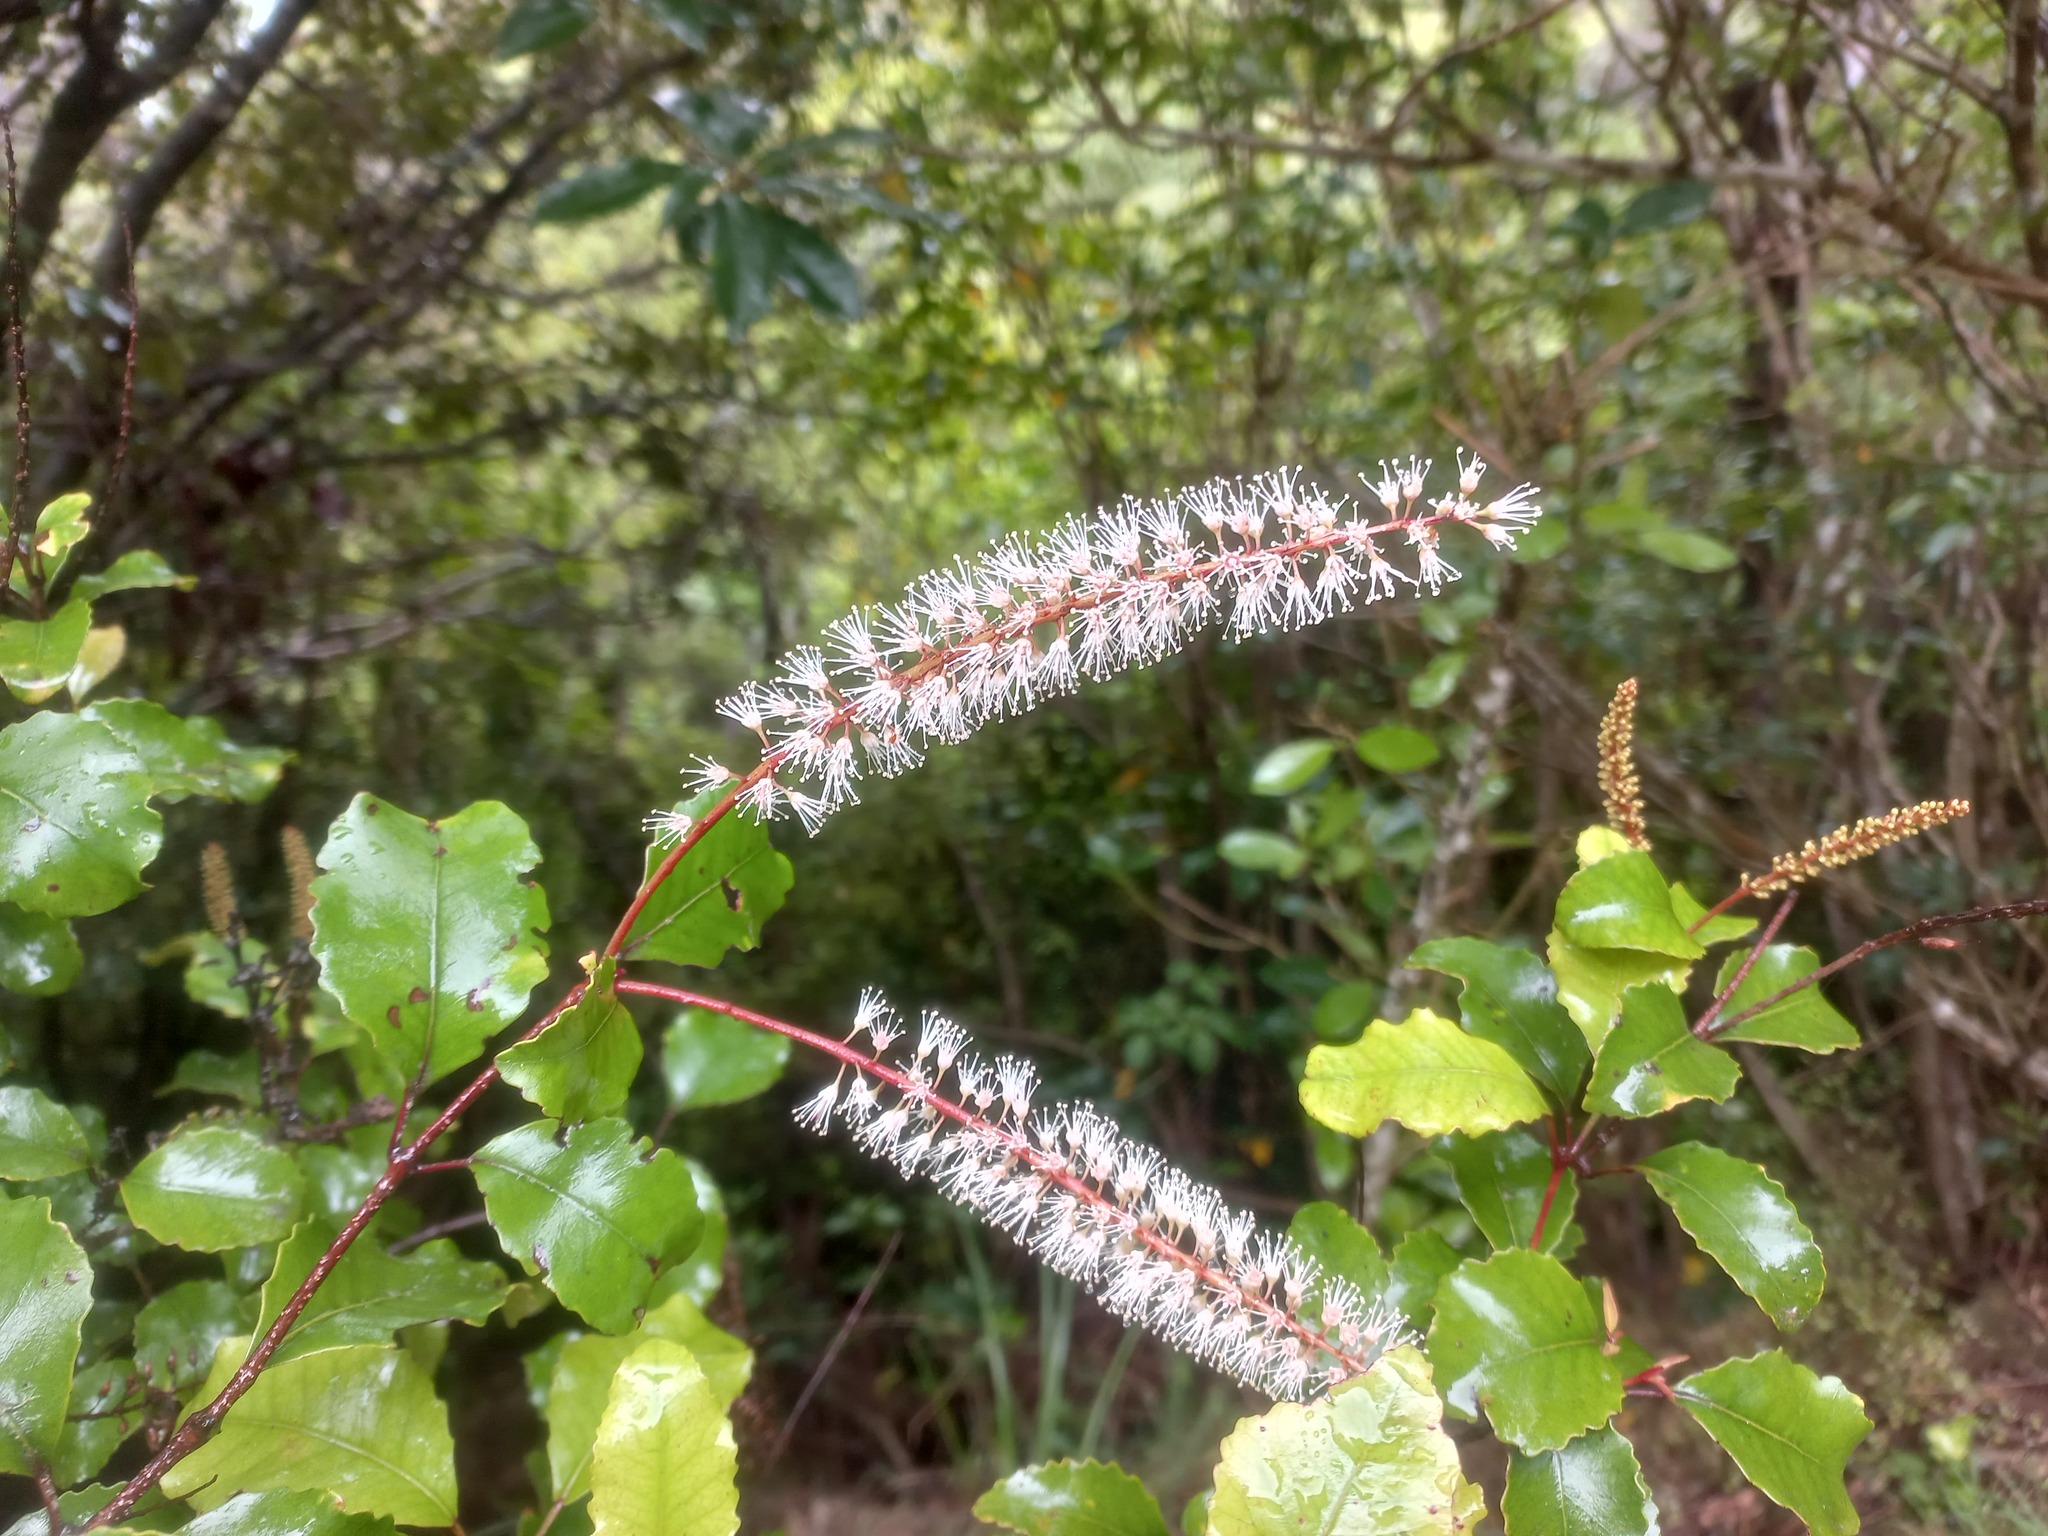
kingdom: Plantae
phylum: Tracheophyta
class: Magnoliopsida
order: Oxalidales
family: Cunoniaceae
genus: Pterophylla
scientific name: Pterophylla racemosa
